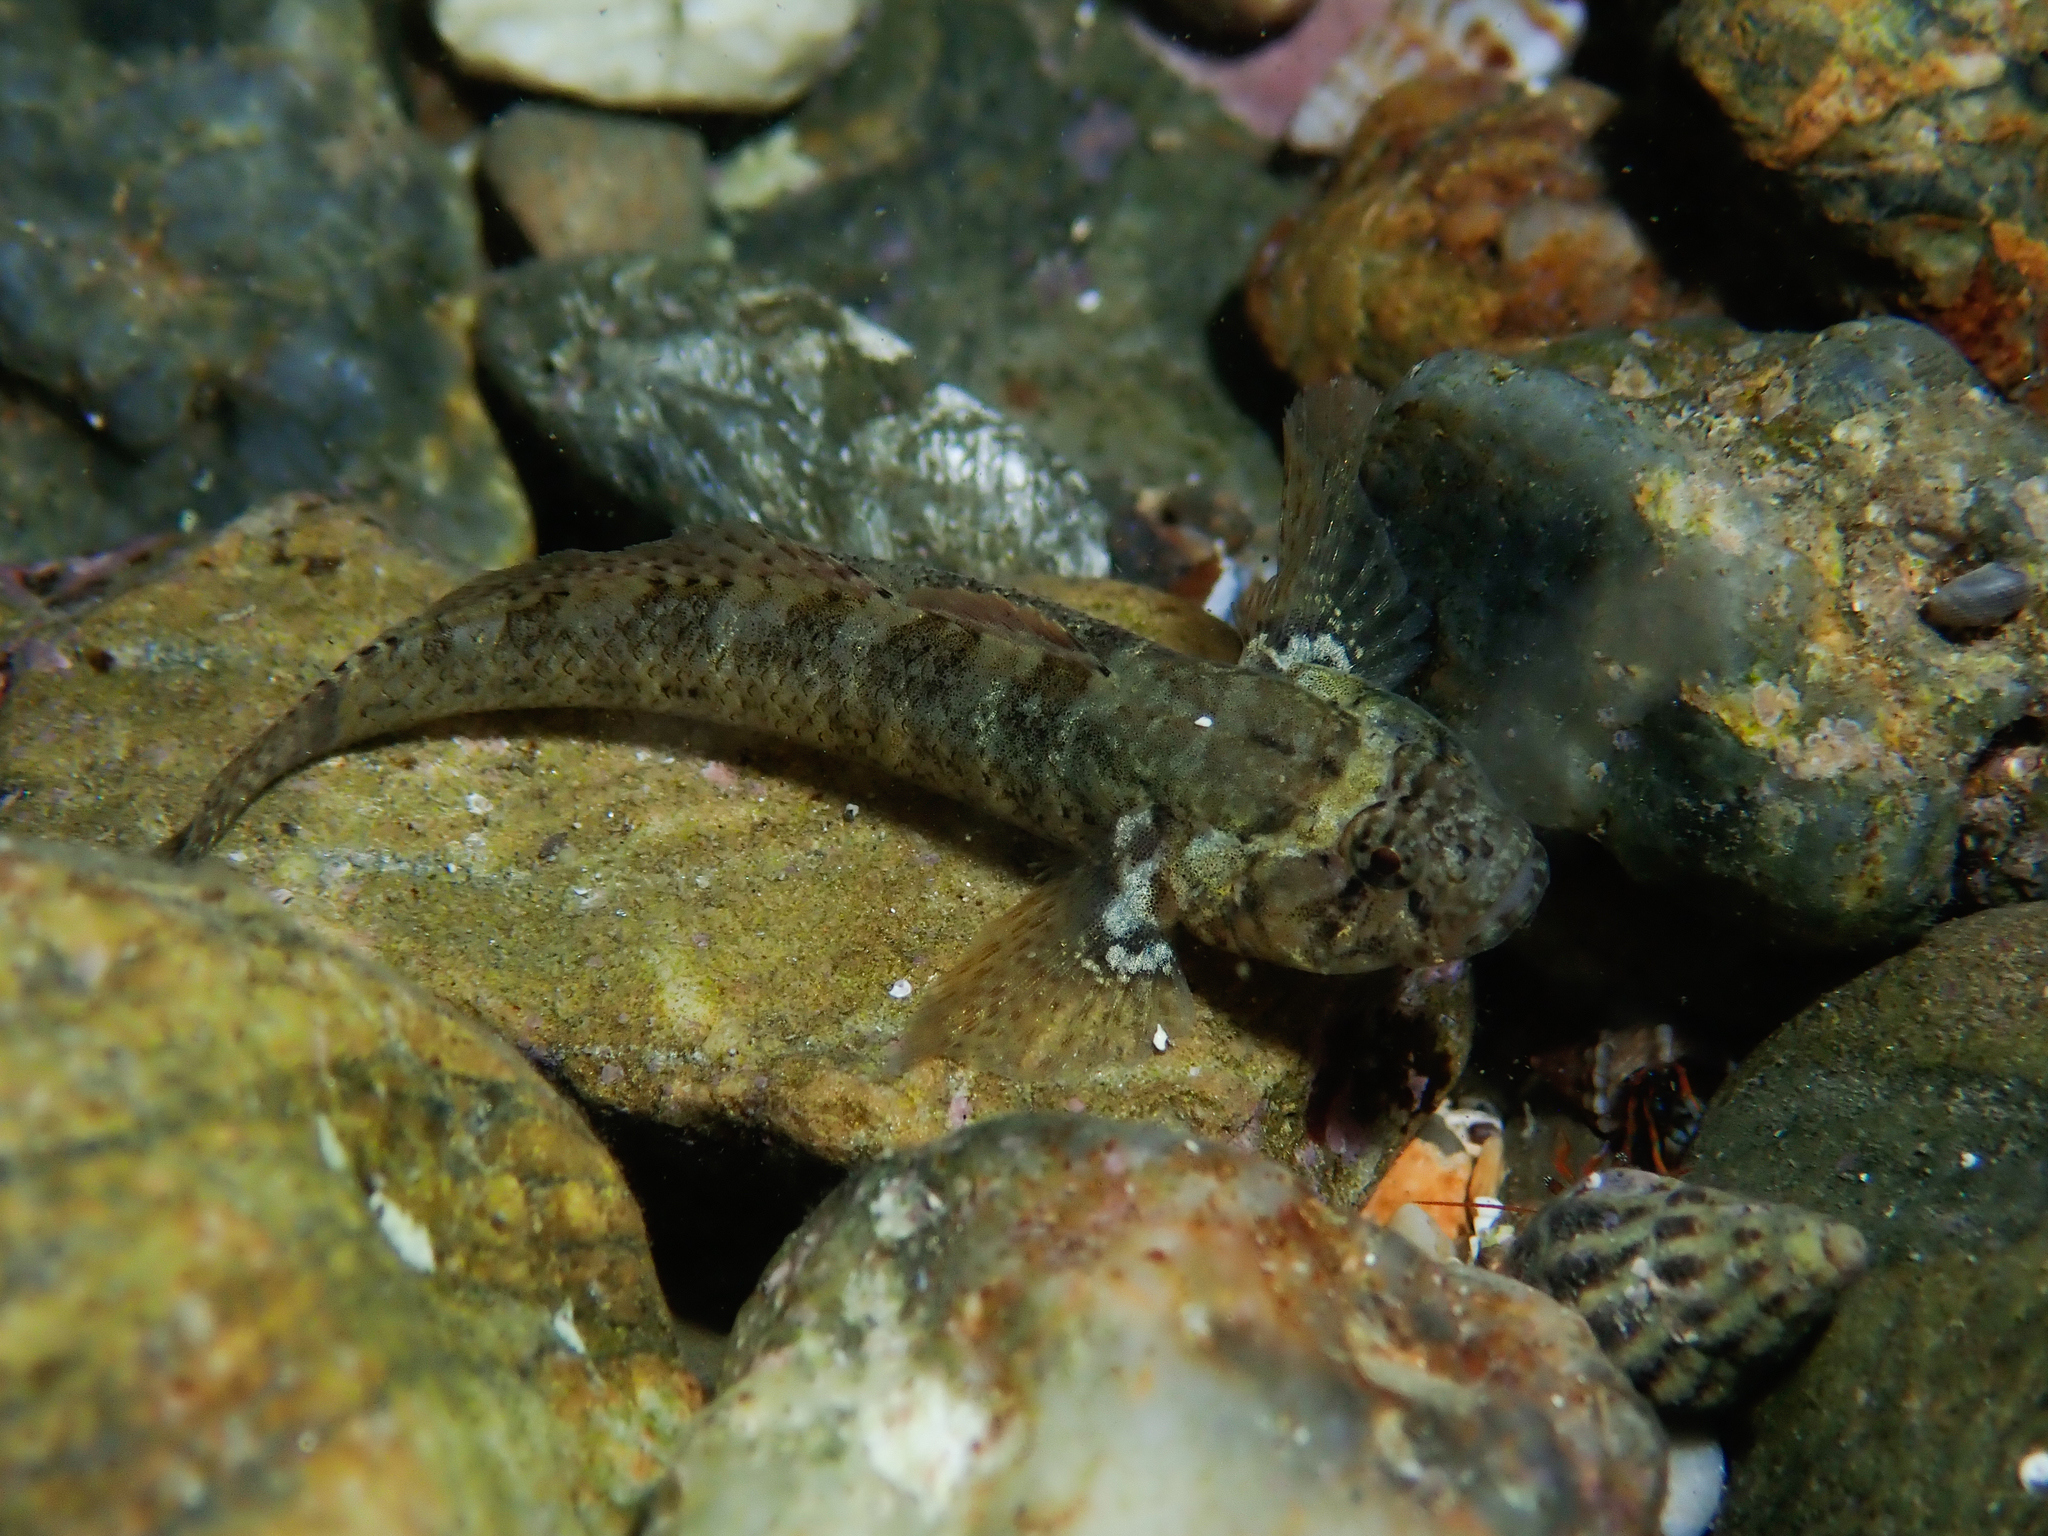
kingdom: Animalia
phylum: Chordata
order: Perciformes
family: Gobiidae
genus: Zebrus
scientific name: Zebrus zebrus
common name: Zebra goby
